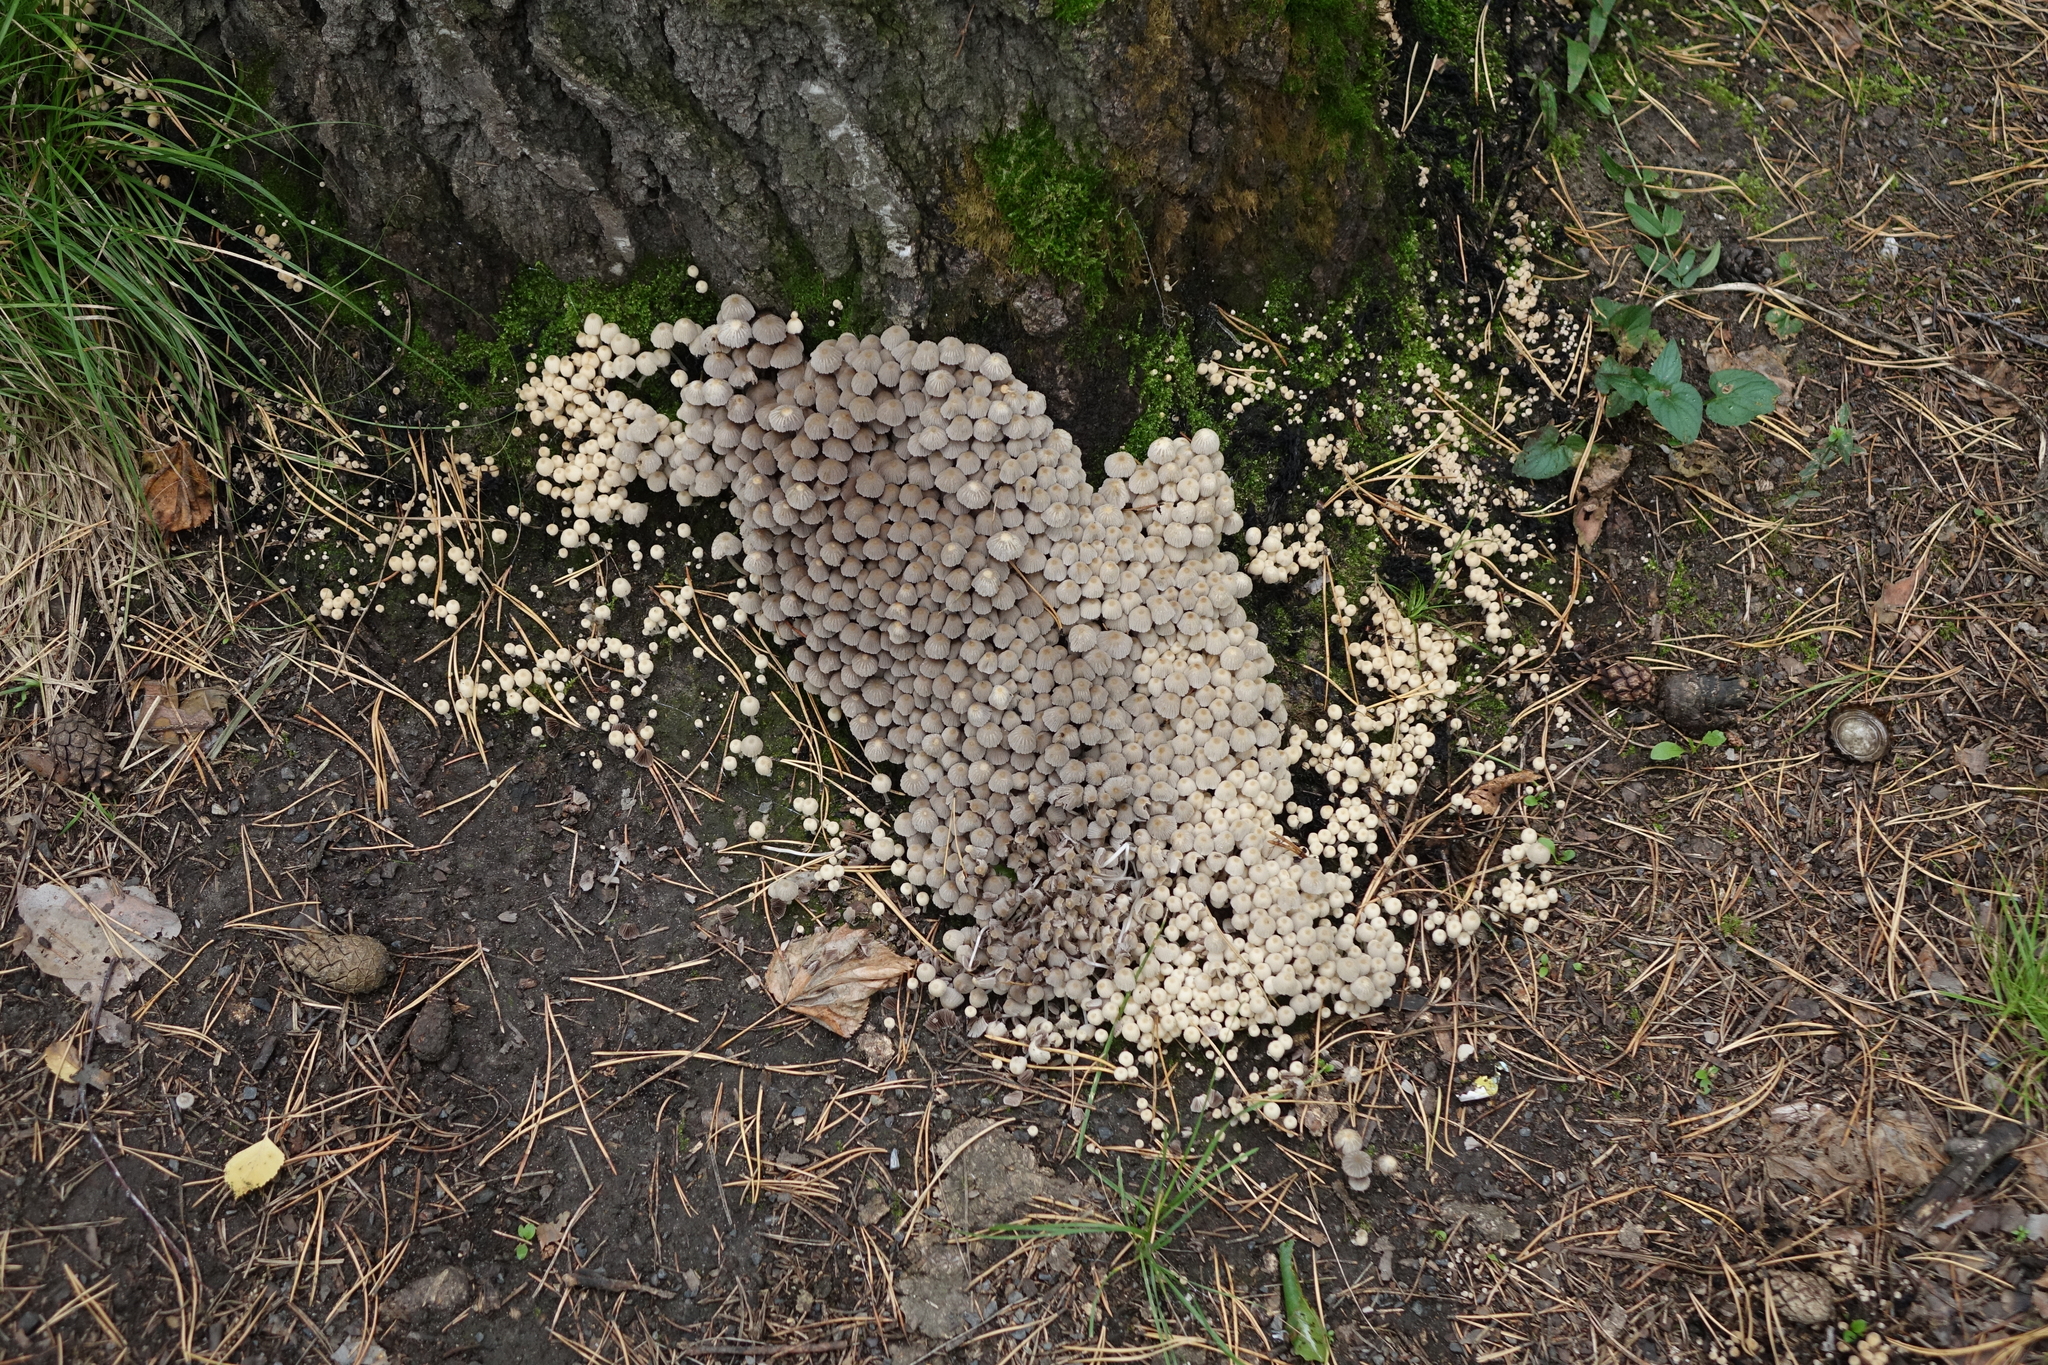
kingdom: Fungi
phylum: Basidiomycota
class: Agaricomycetes
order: Agaricales
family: Psathyrellaceae
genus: Coprinellus
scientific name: Coprinellus disseminatus
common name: Fairies' bonnets
